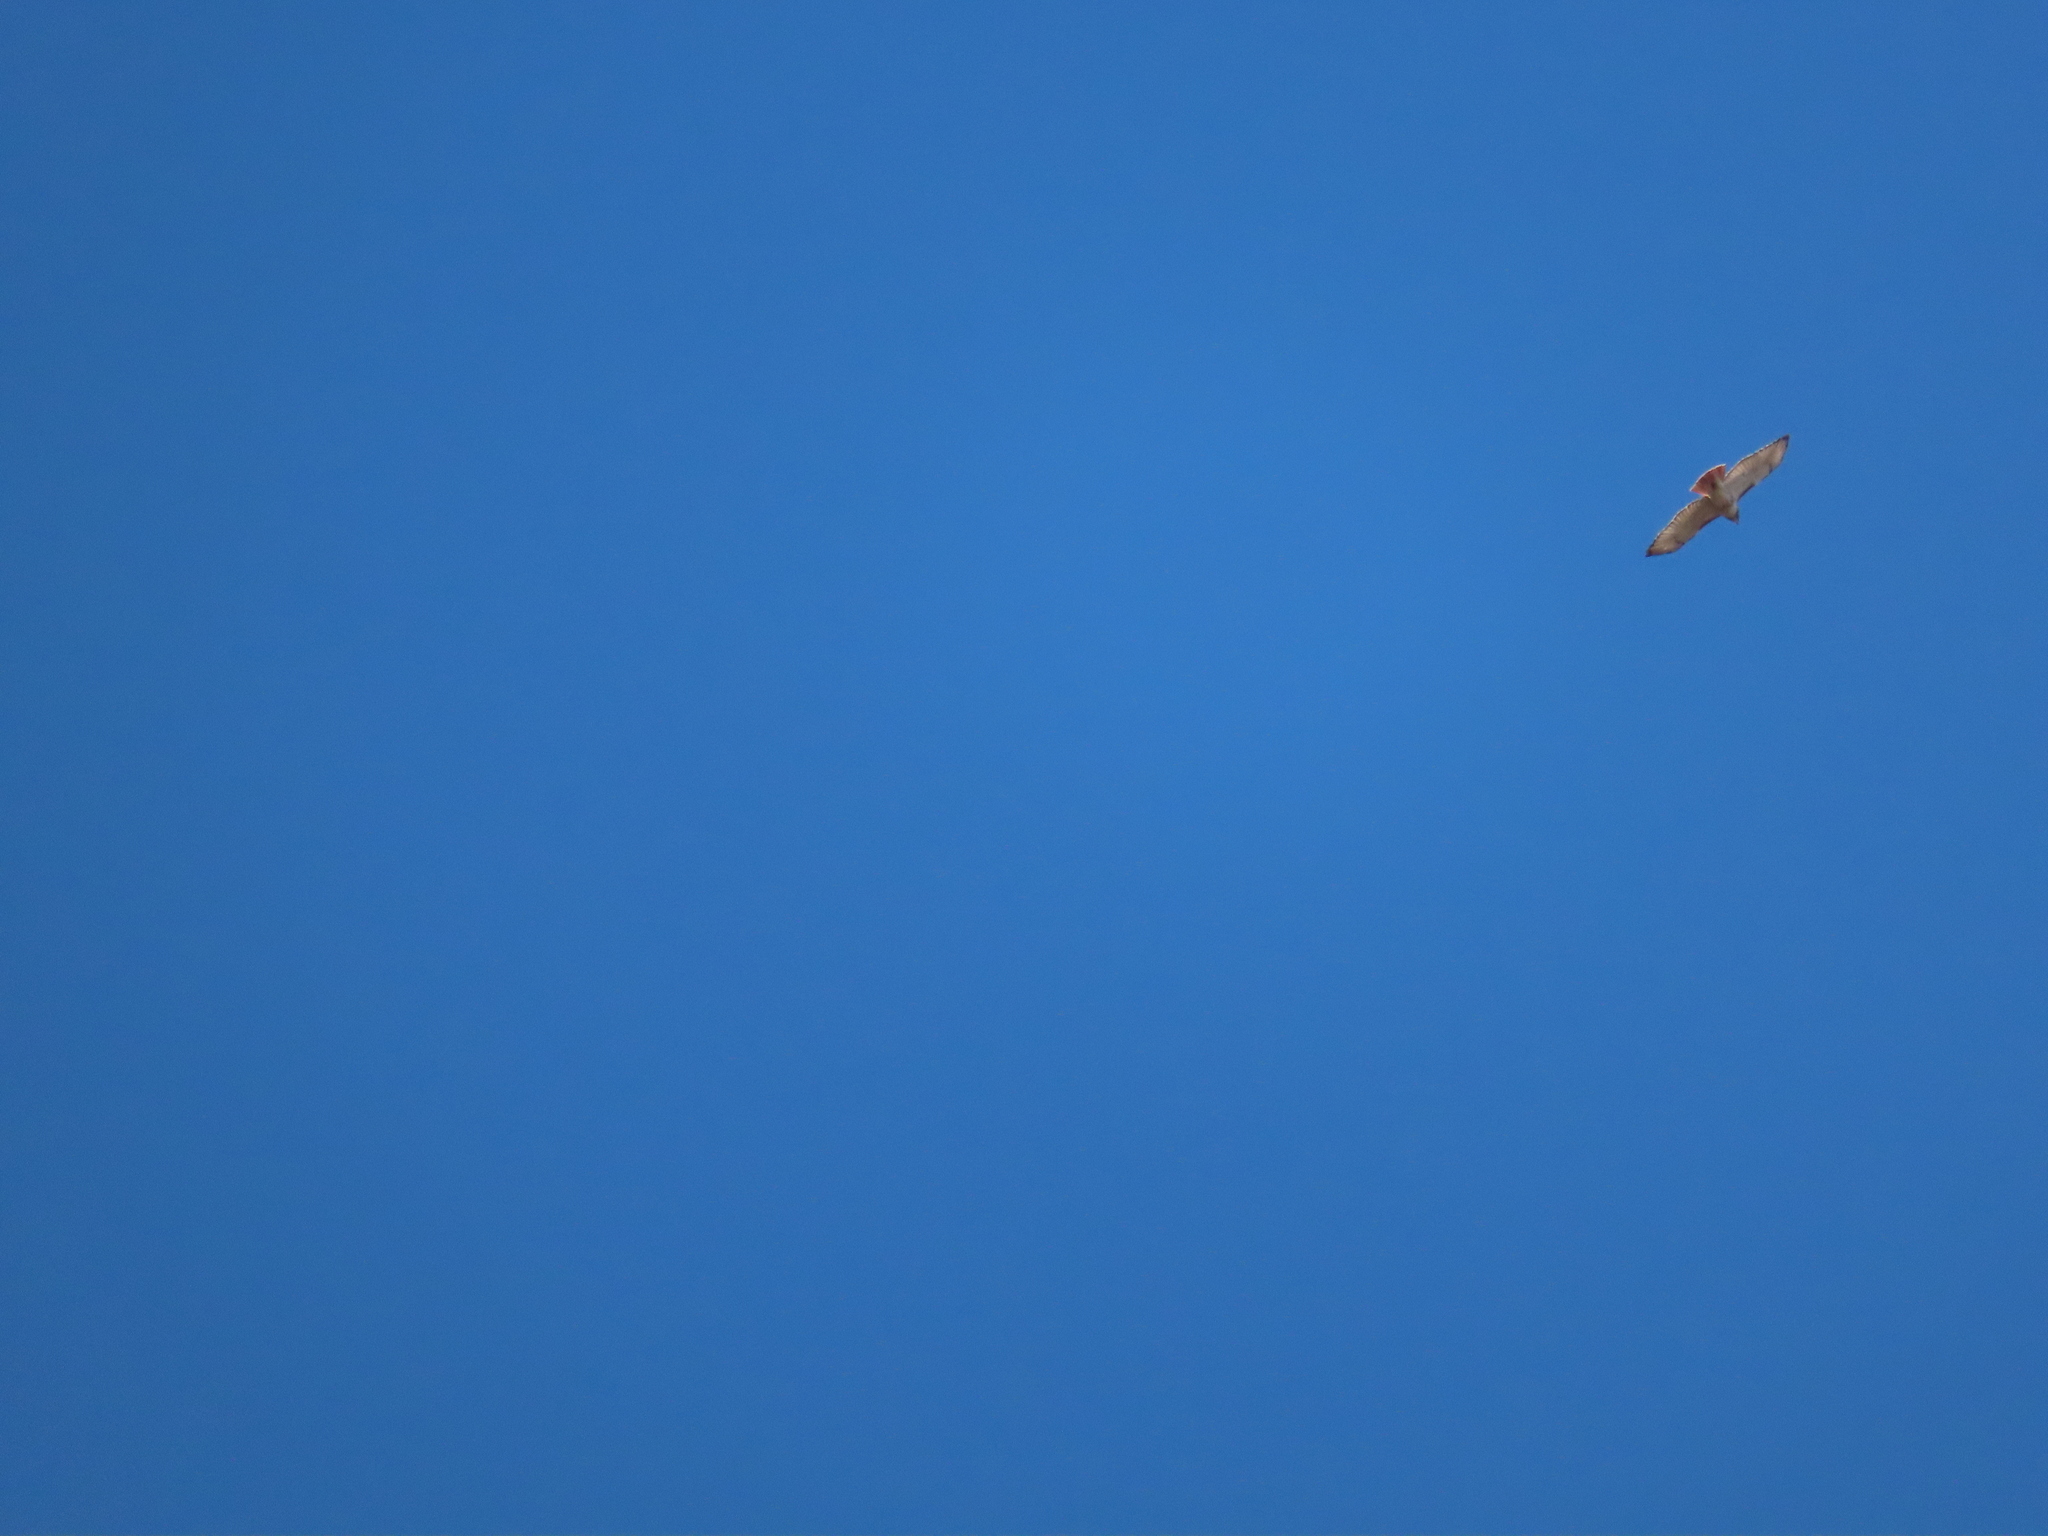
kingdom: Animalia
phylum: Chordata
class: Aves
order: Accipitriformes
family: Accipitridae
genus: Buteo
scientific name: Buteo jamaicensis
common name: Red-tailed hawk
